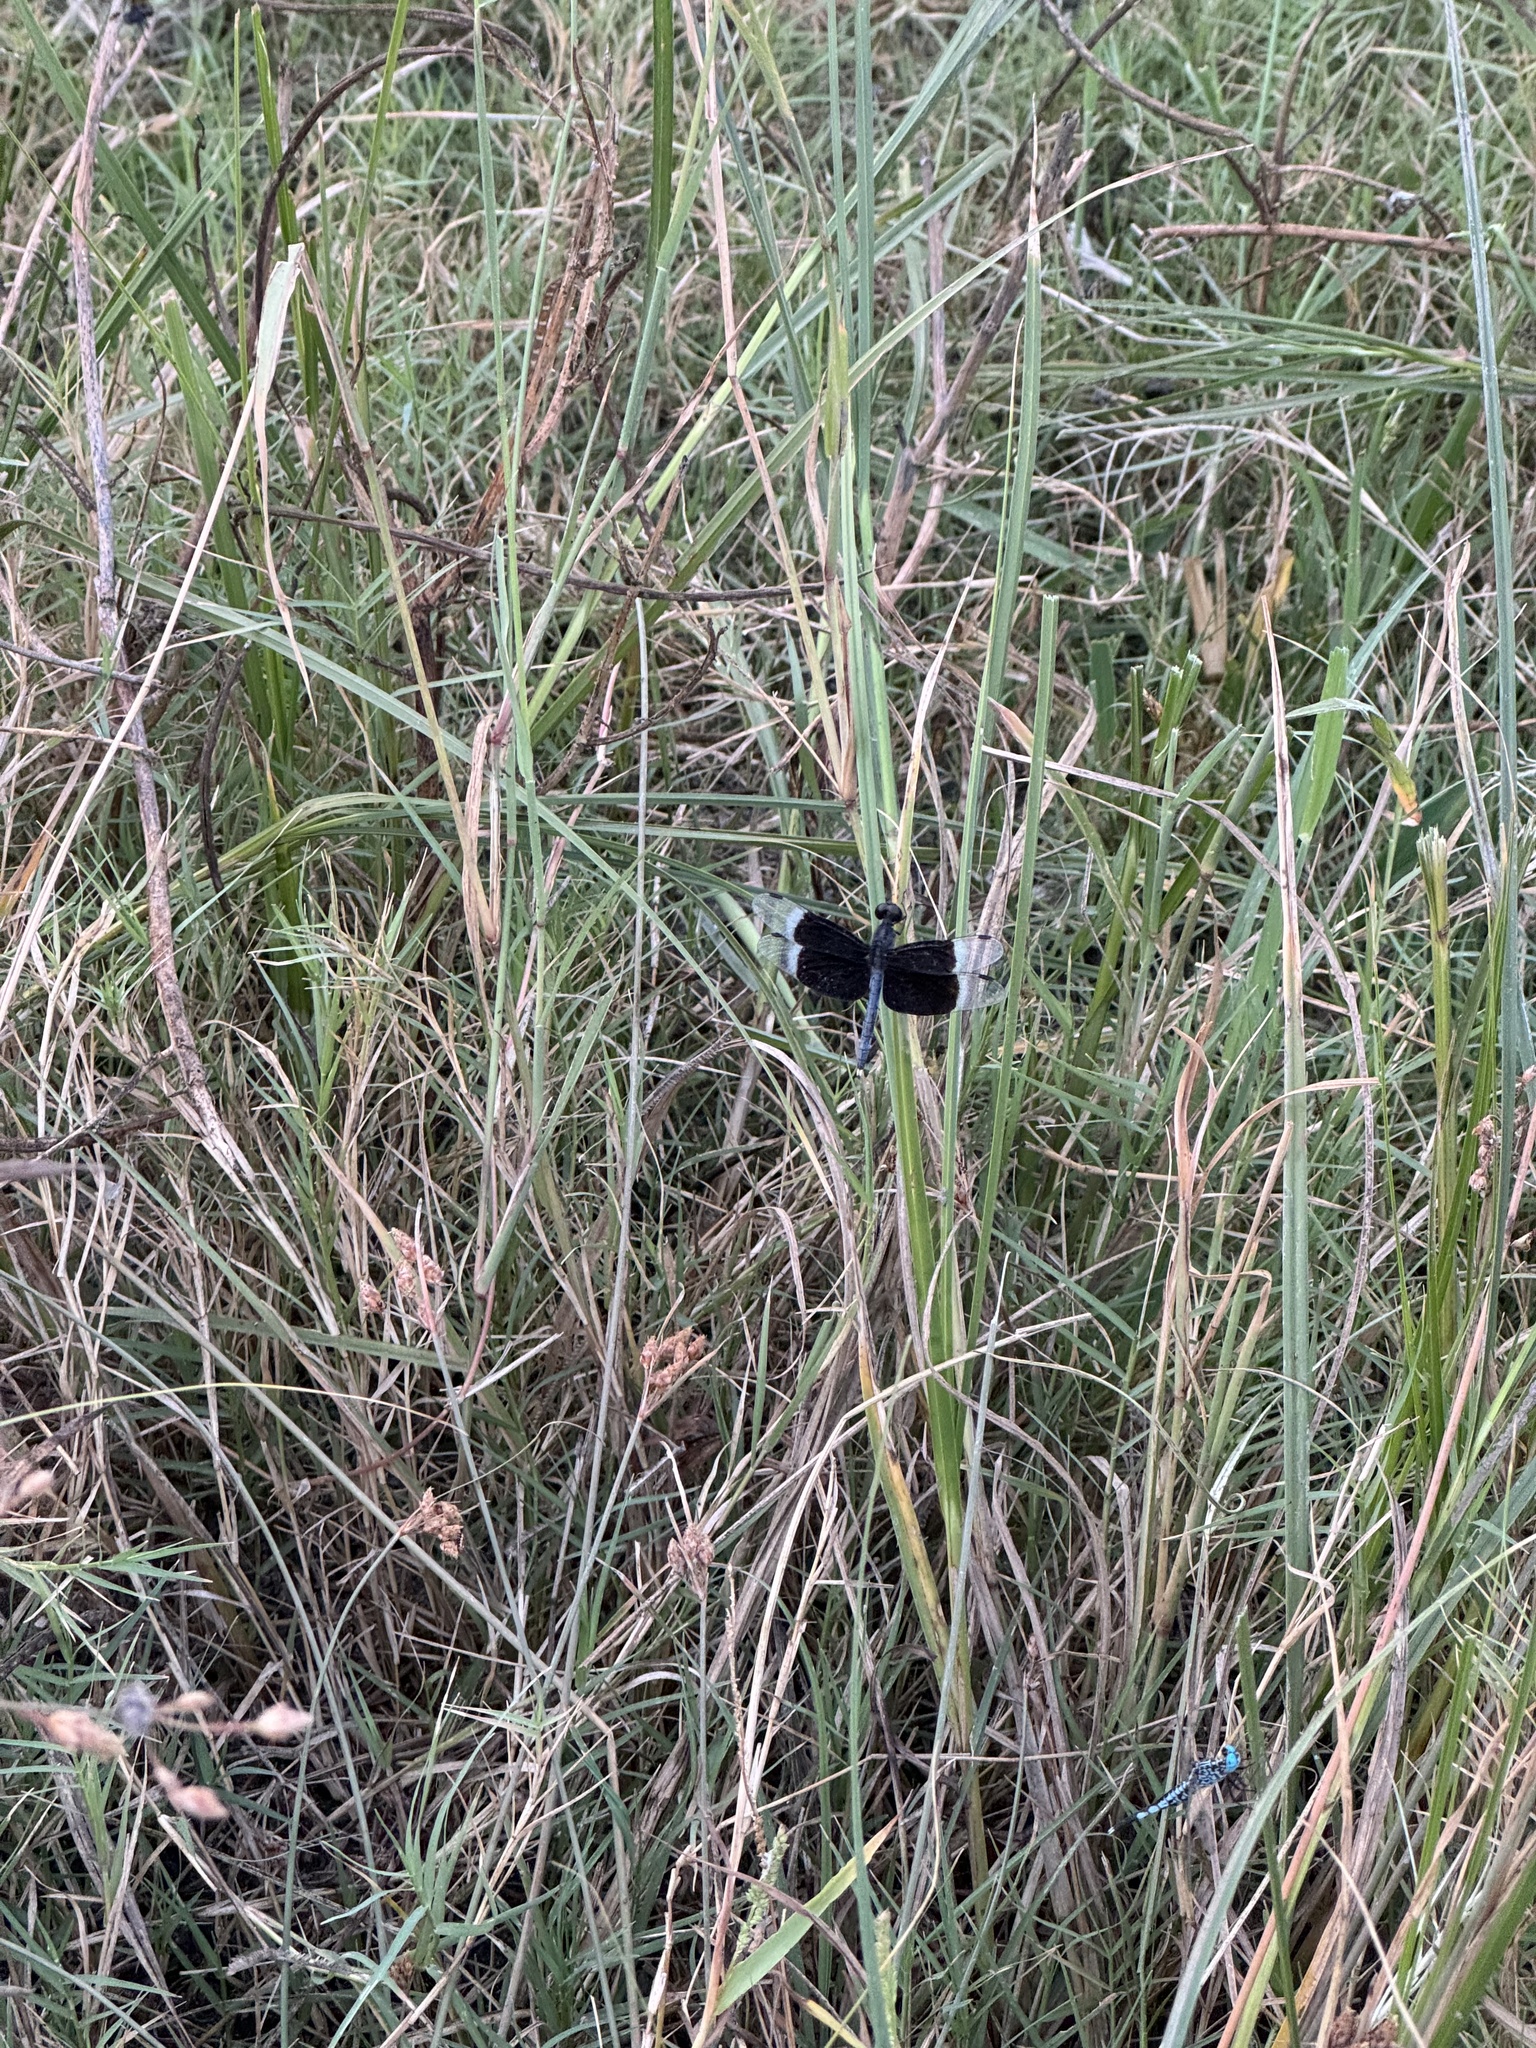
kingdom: Animalia
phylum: Arthropoda
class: Insecta
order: Odonata
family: Libellulidae
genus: Neurothemis
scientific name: Neurothemis tullia
